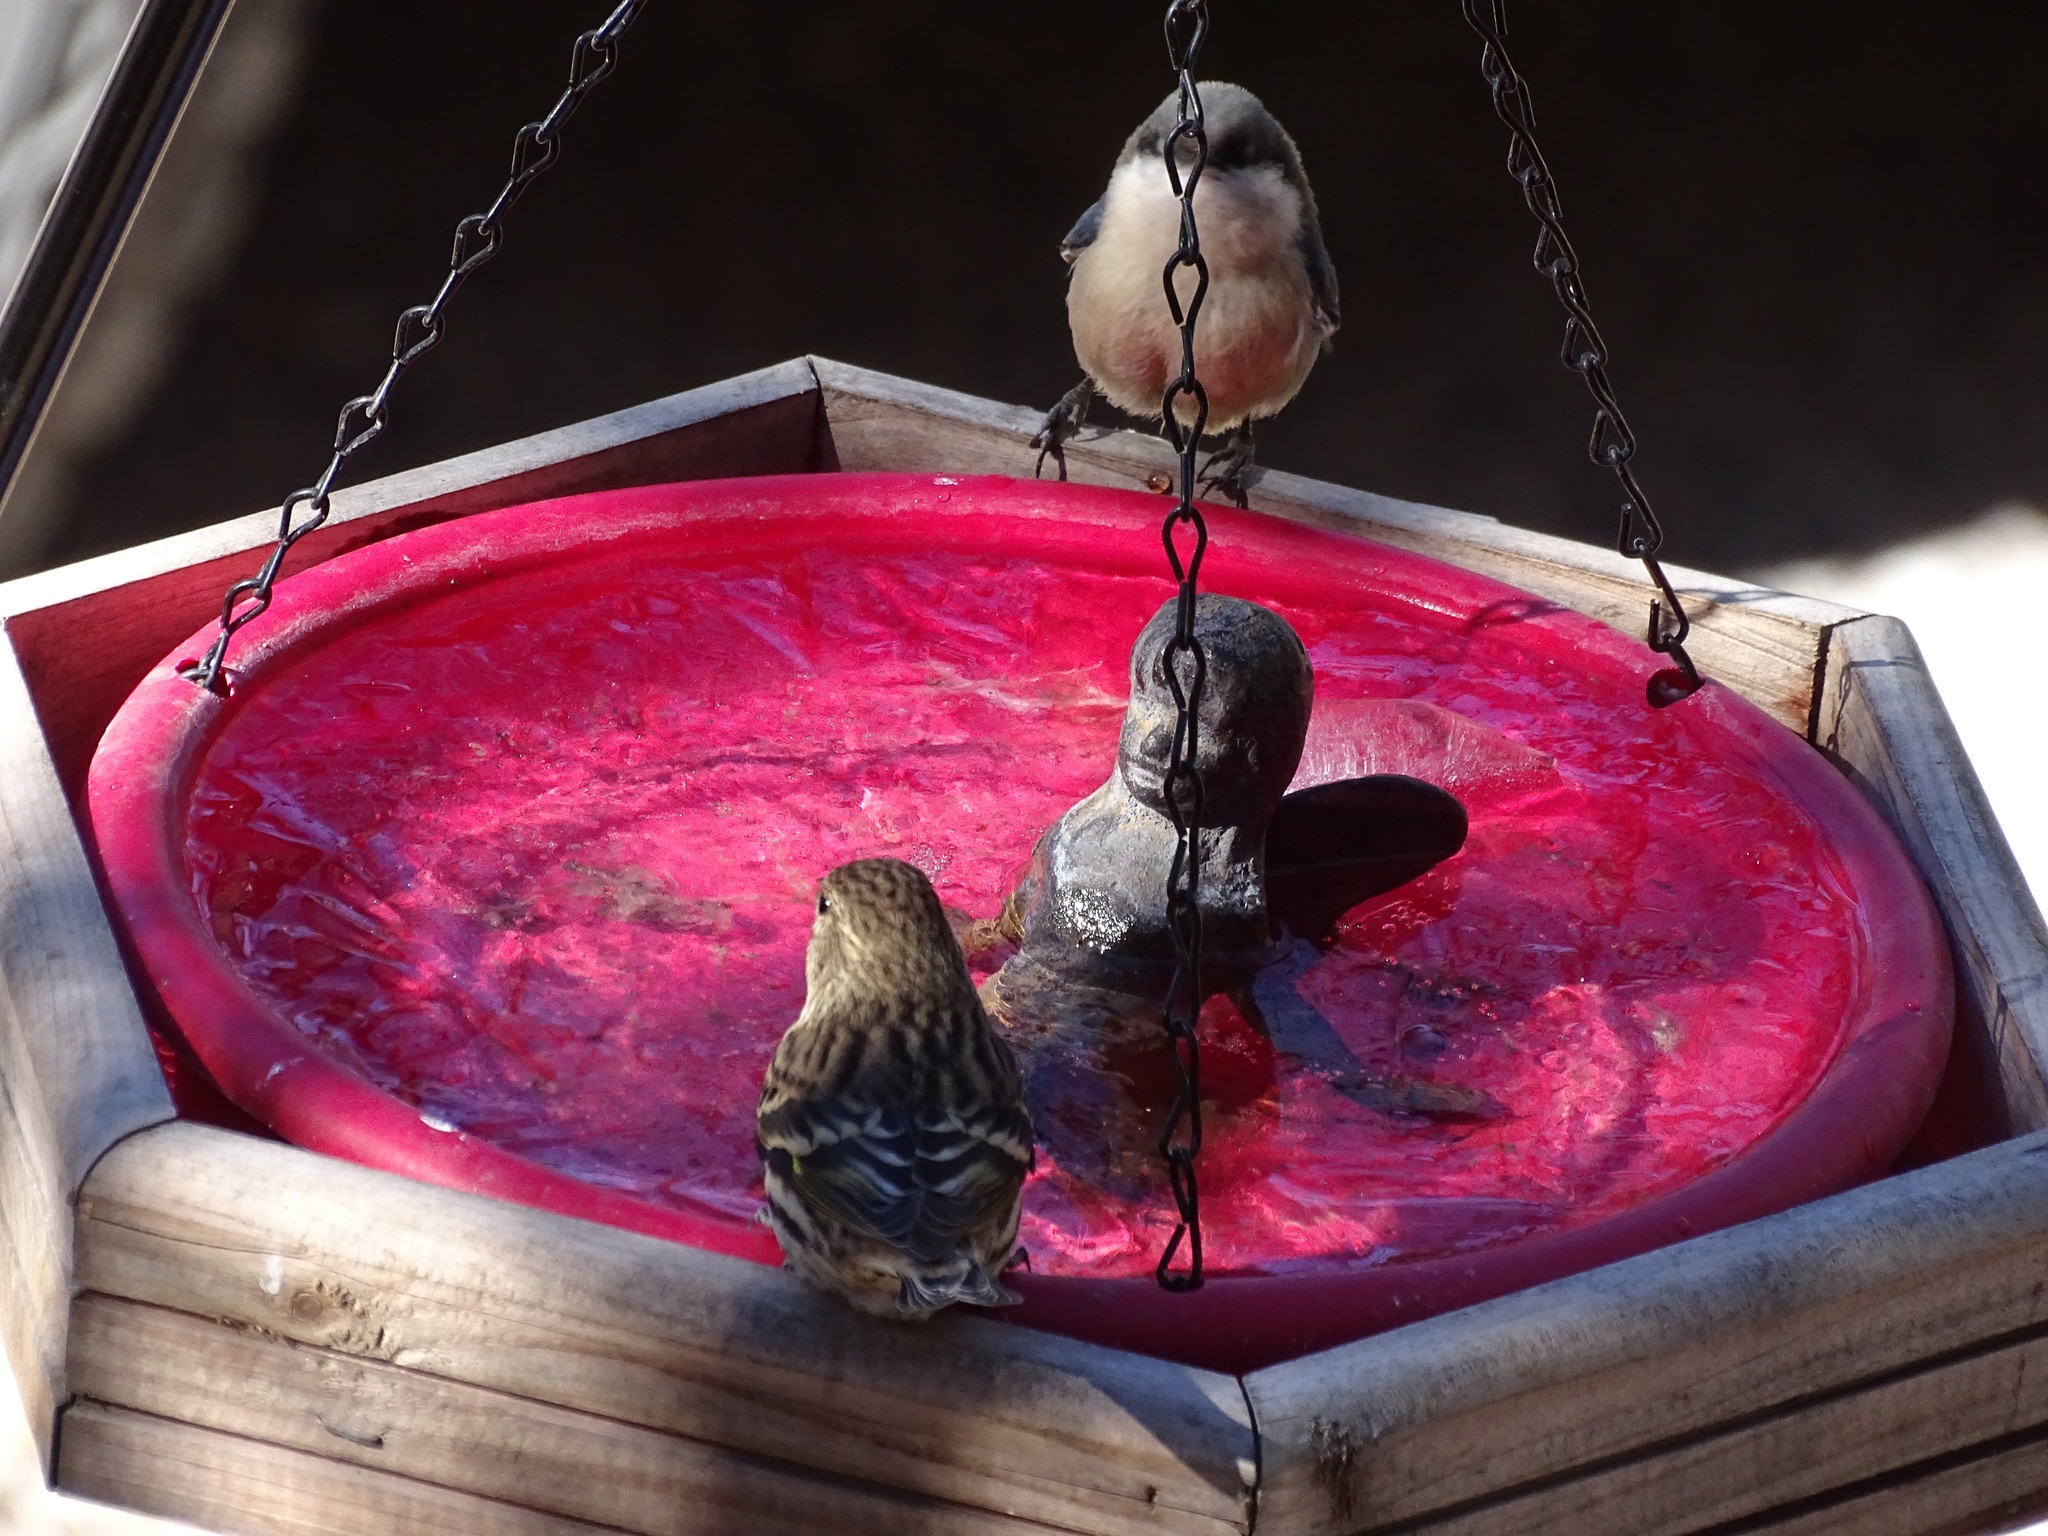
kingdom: Animalia
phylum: Chordata
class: Aves
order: Passeriformes
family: Fringillidae
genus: Spinus
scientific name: Spinus pinus
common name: Pine siskin
